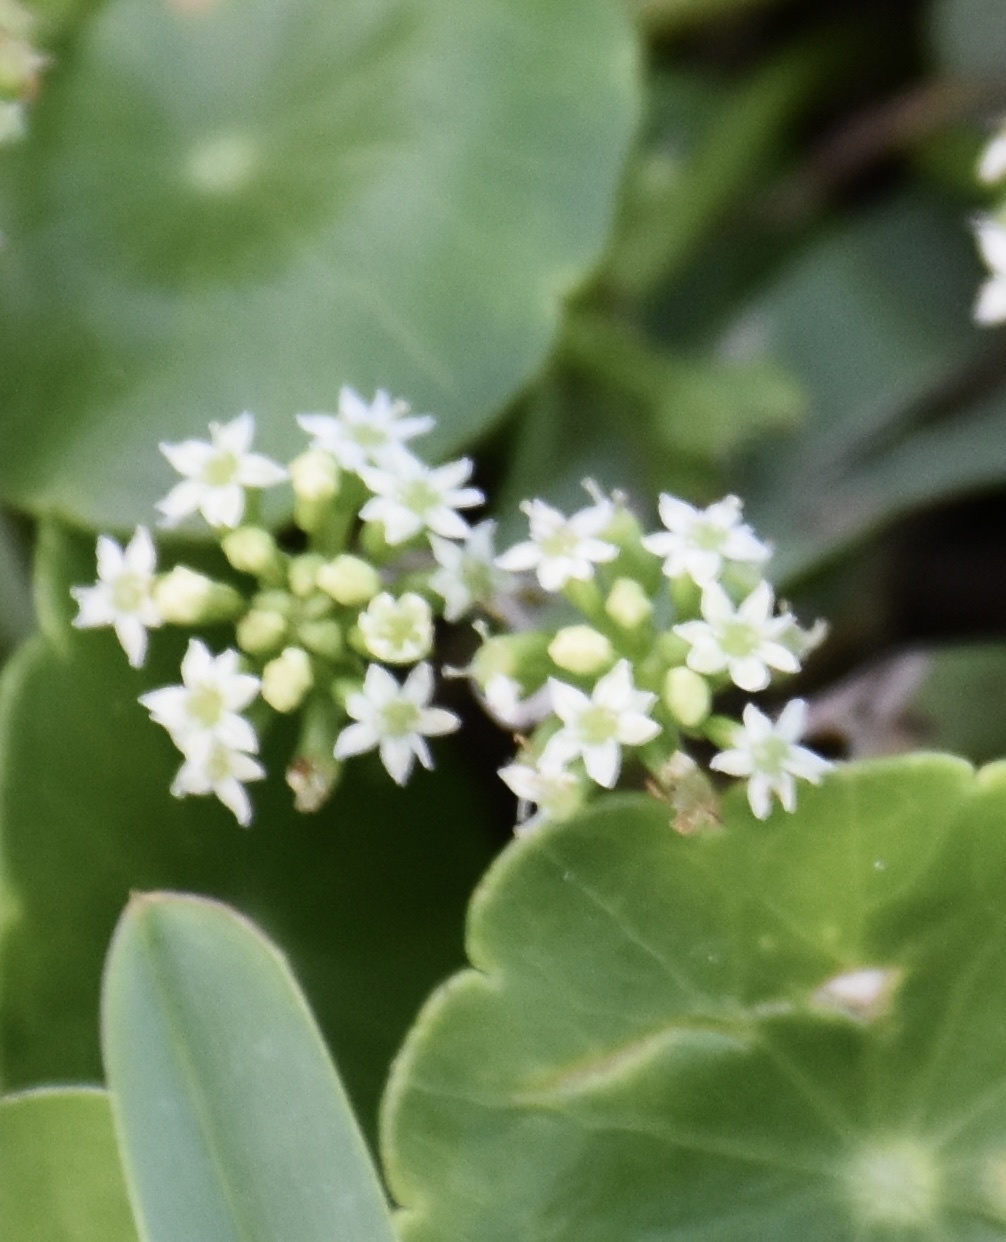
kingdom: Plantae
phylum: Tracheophyta
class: Magnoliopsida
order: Apiales
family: Araliaceae
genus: Hydrocotyle
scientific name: Hydrocotyle umbellata
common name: Water pennywort
